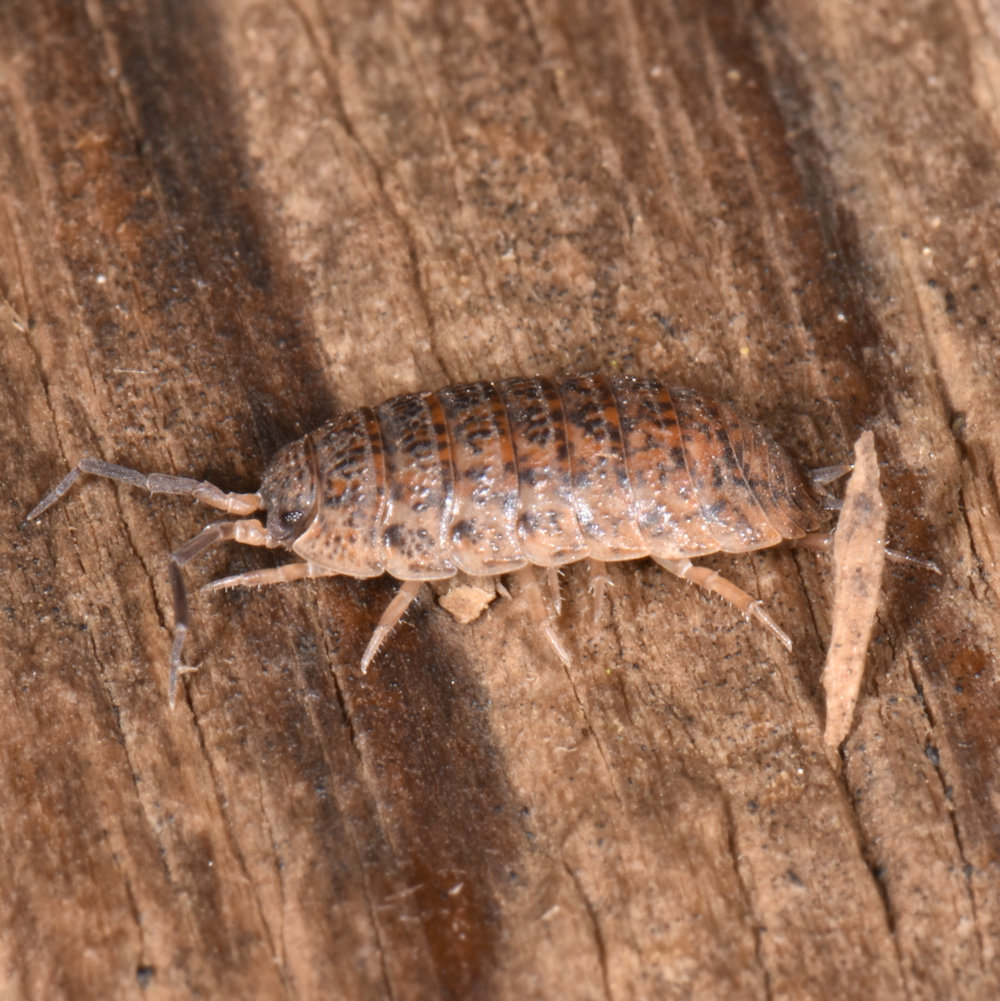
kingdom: Animalia
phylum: Arthropoda
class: Malacostraca
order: Isopoda
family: Trachelipodidae
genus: Trachelipus
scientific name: Trachelipus rathkii
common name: Isopod
